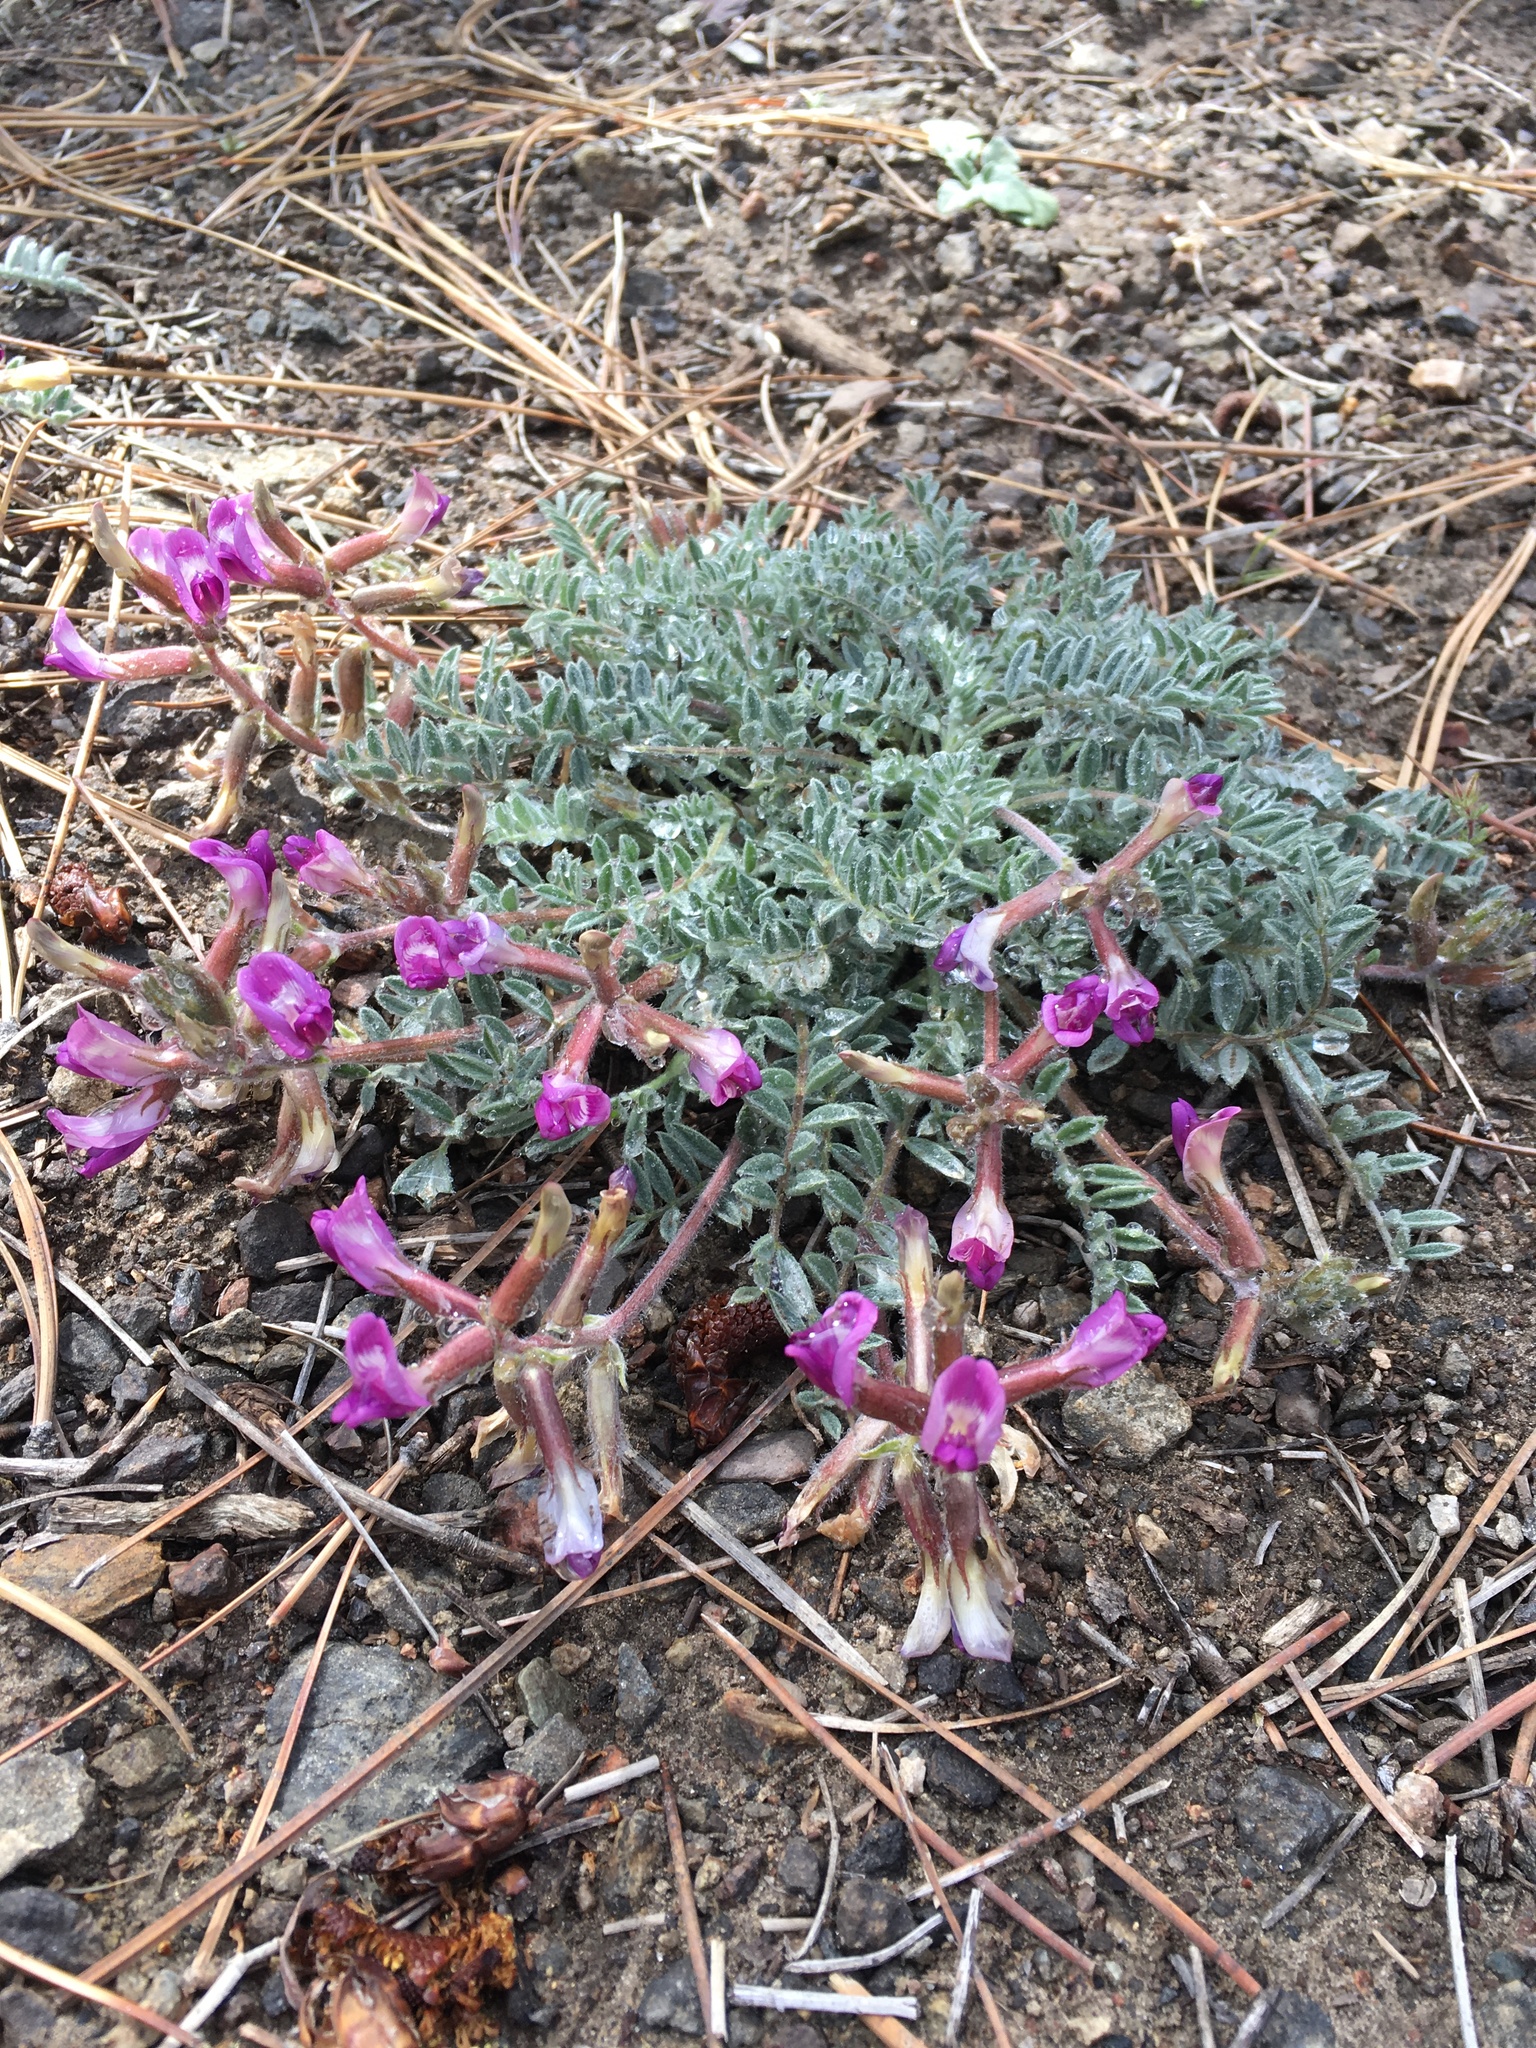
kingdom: Plantae
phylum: Tracheophyta
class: Magnoliopsida
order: Fabales
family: Fabaceae
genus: Astragalus
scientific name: Astragalus leucolobus
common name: Big bear valley woollypod
